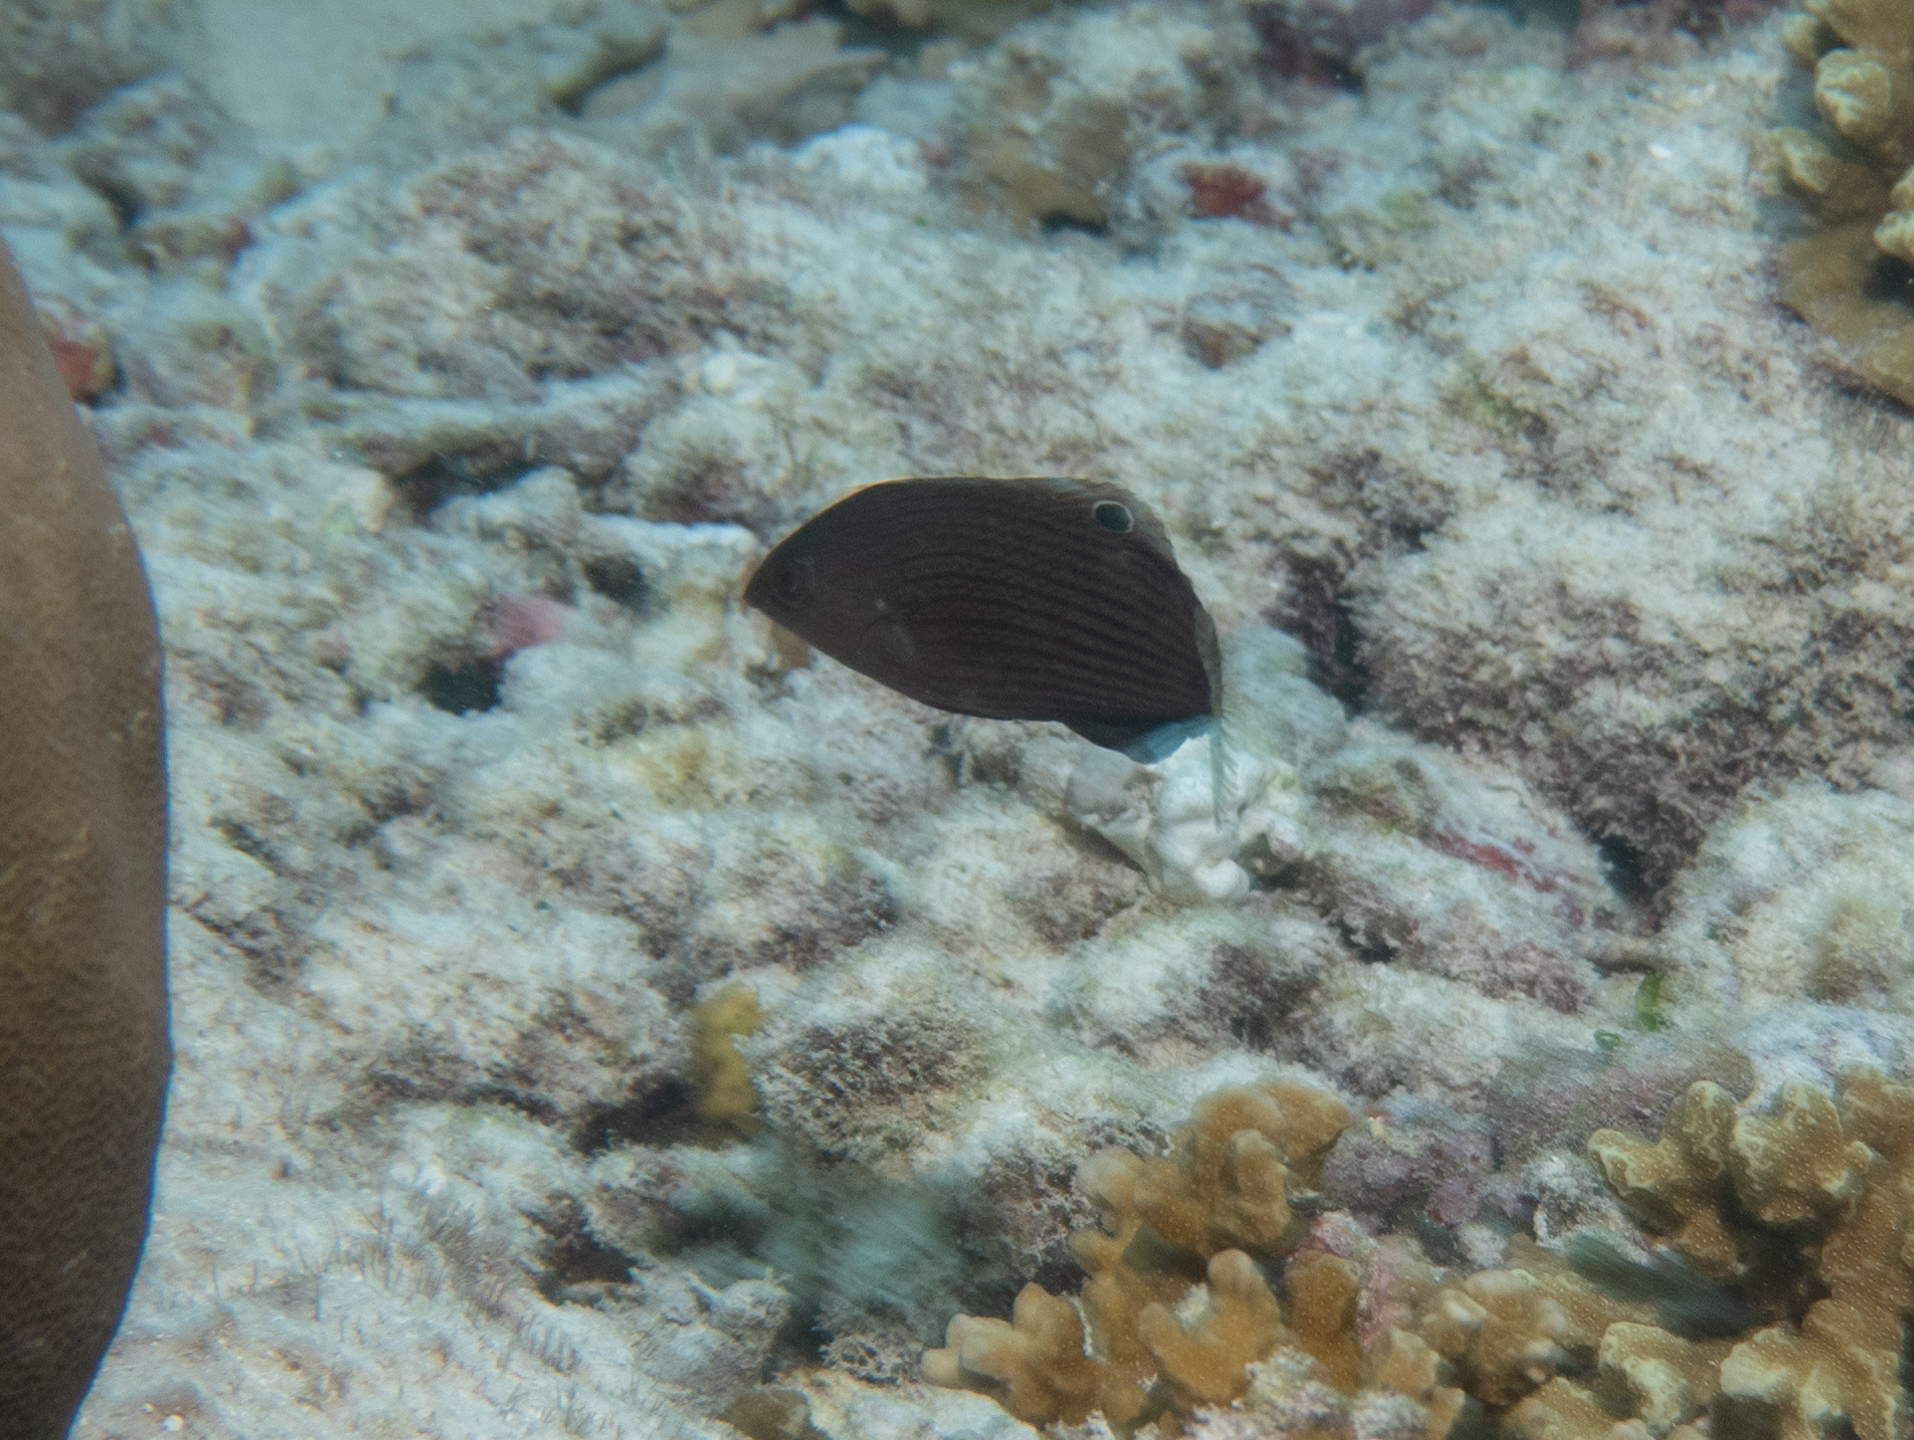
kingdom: Animalia
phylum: Chordata
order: Perciformes
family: Labridae
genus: Halichoeres
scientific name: Halichoeres marginatus
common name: Dusky wrasse
